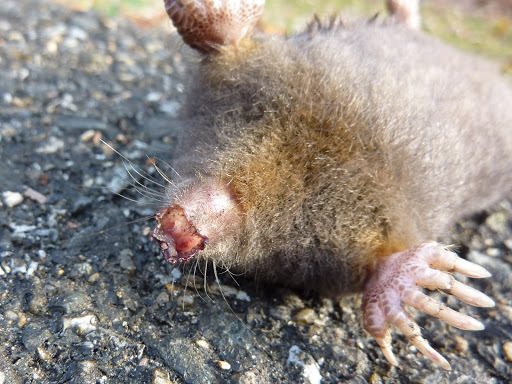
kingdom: Animalia
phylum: Chordata
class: Mammalia
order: Soricomorpha
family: Talpidae
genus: Condylura
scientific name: Condylura cristata
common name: Star-nosed mole
